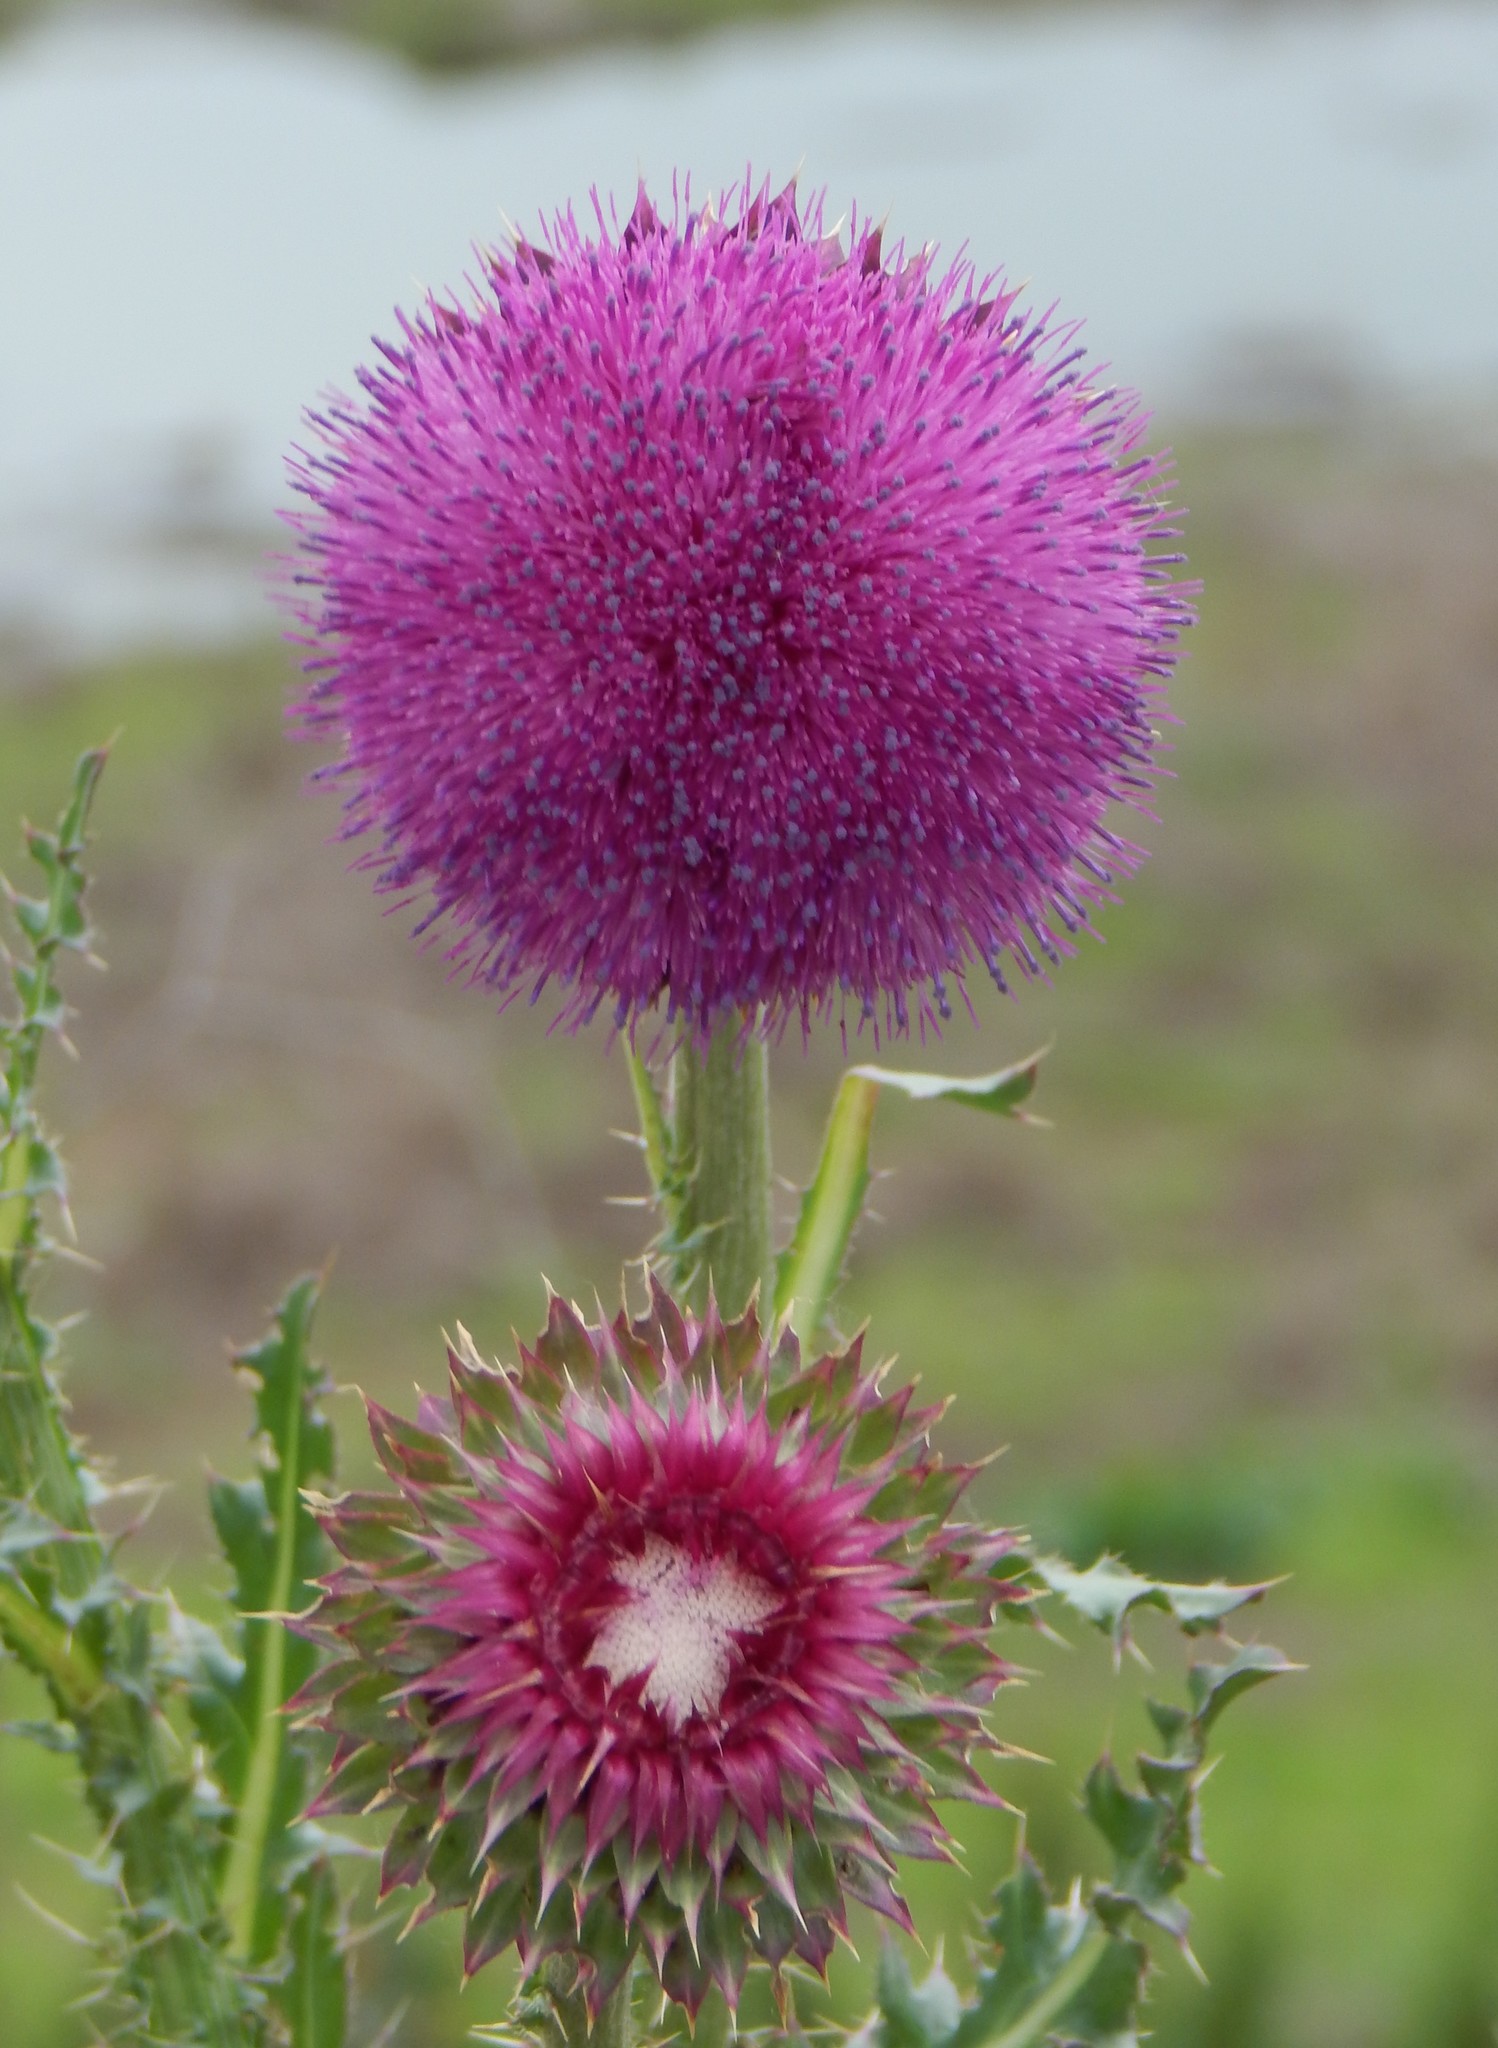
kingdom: Plantae
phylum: Tracheophyta
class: Magnoliopsida
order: Asterales
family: Asteraceae
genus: Carduus
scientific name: Carduus nutans
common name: Musk thistle
